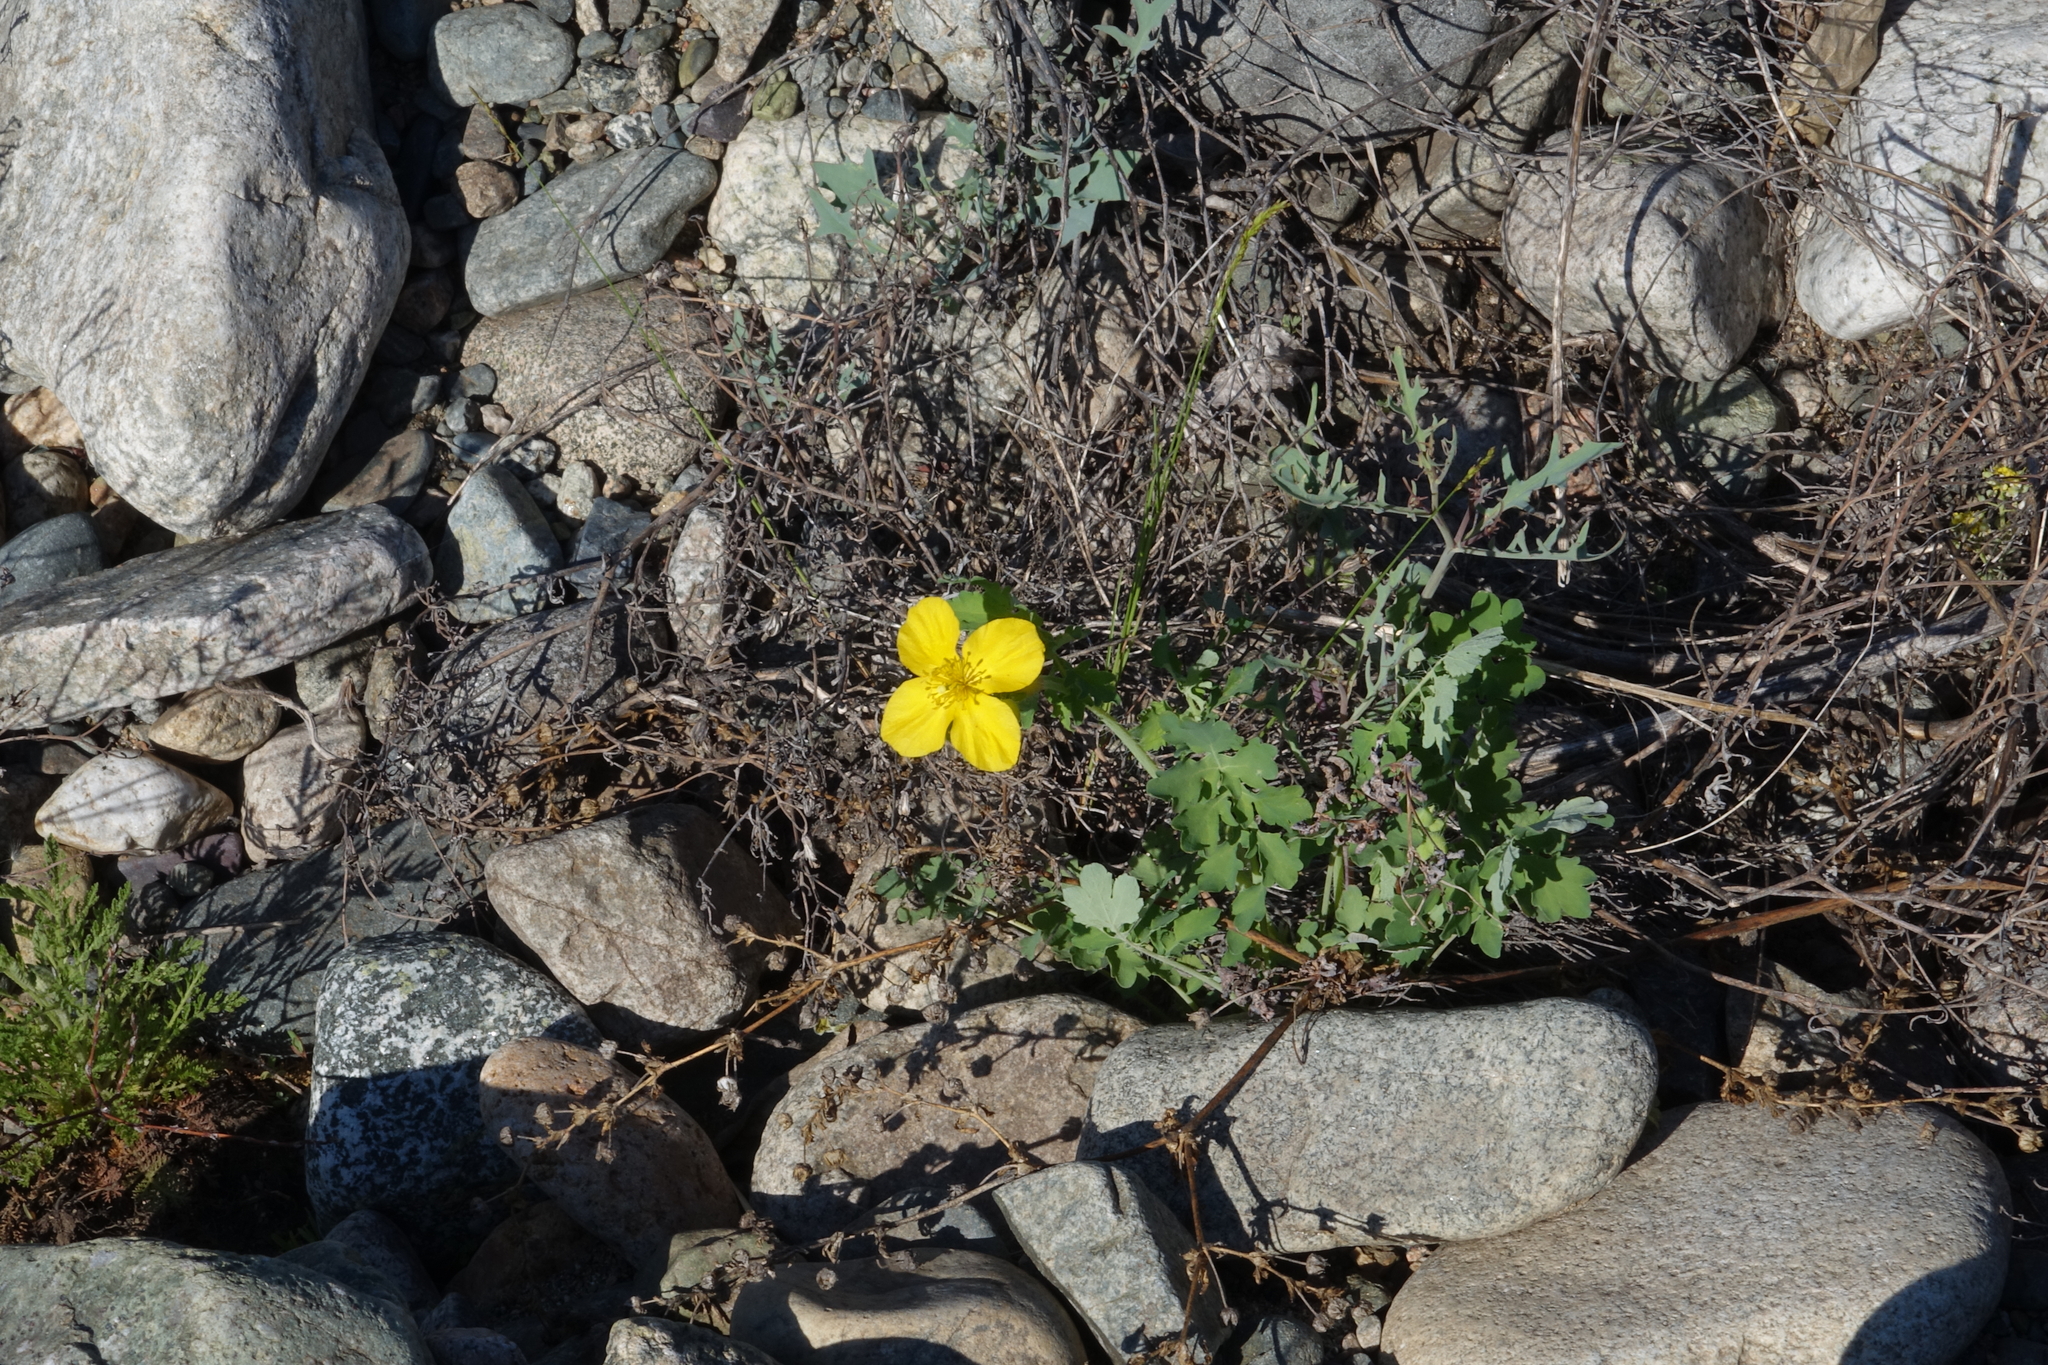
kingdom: Plantae
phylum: Tracheophyta
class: Magnoliopsida
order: Ranunculales
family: Papaveraceae
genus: Chelidonium
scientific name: Chelidonium majus
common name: Greater celandine
